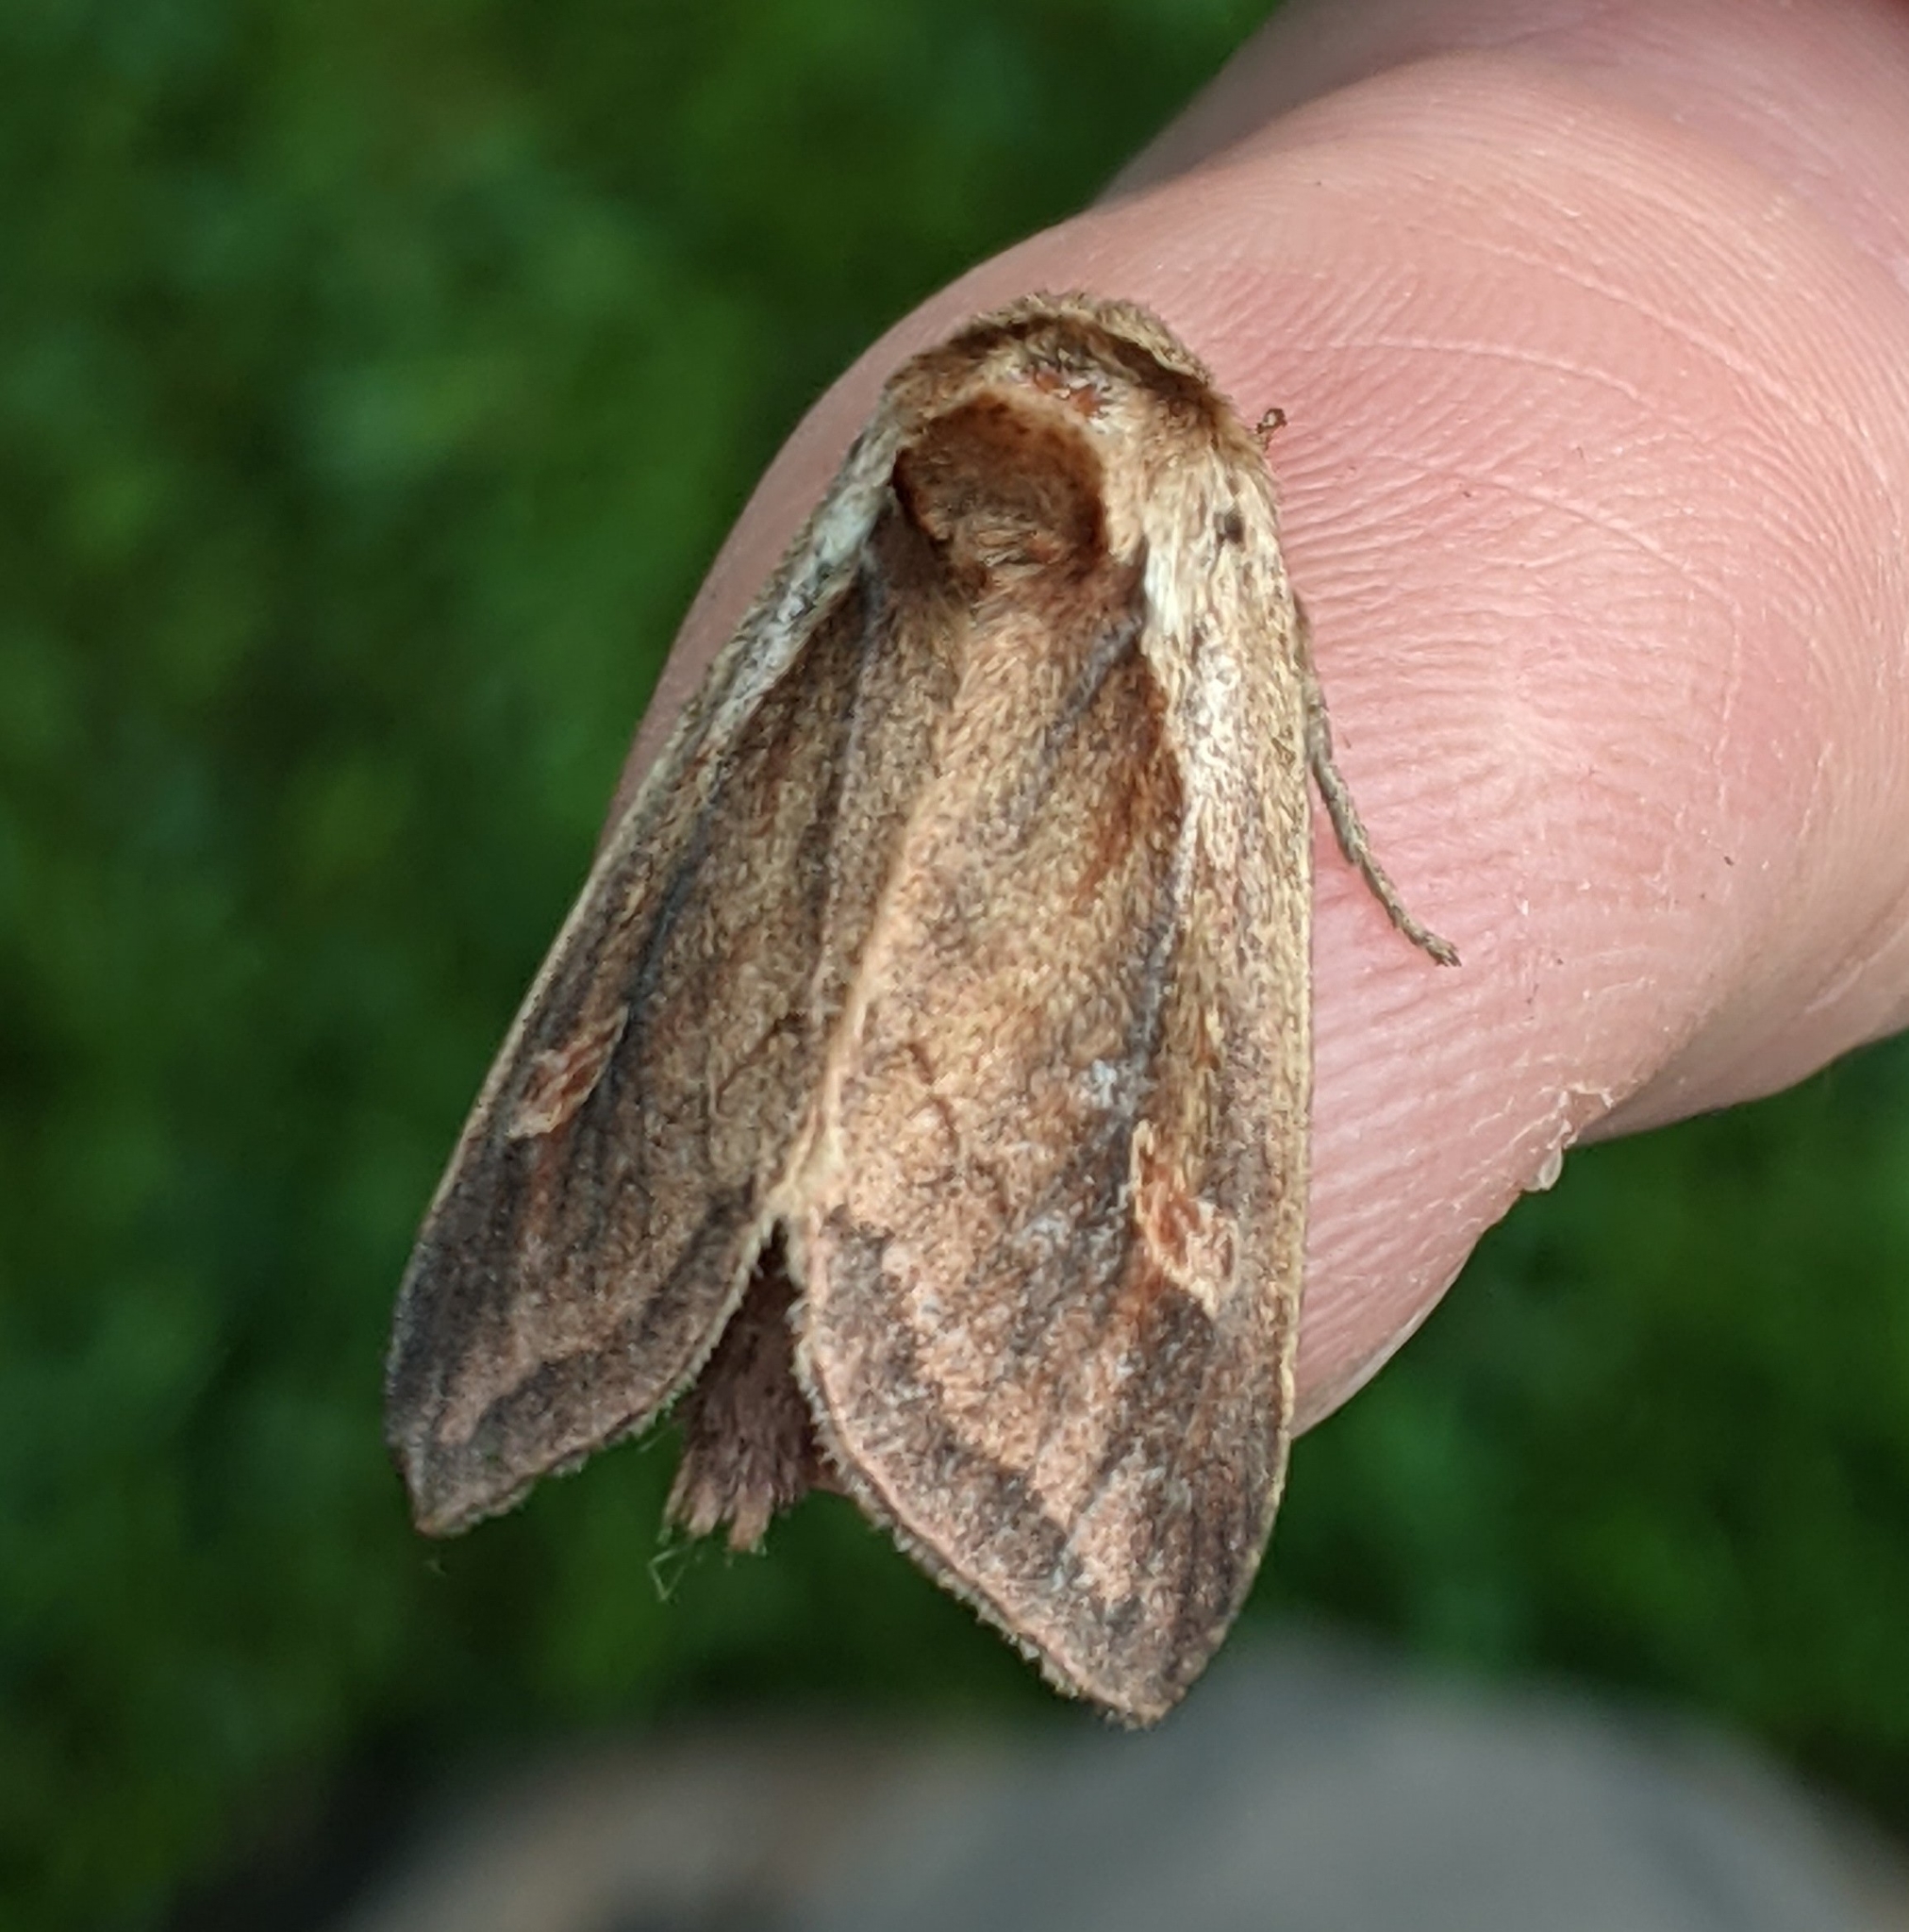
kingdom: Animalia
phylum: Arthropoda
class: Insecta
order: Lepidoptera
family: Noctuidae
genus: Bellura
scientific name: Bellura obliqua
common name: Cattail borer moth
